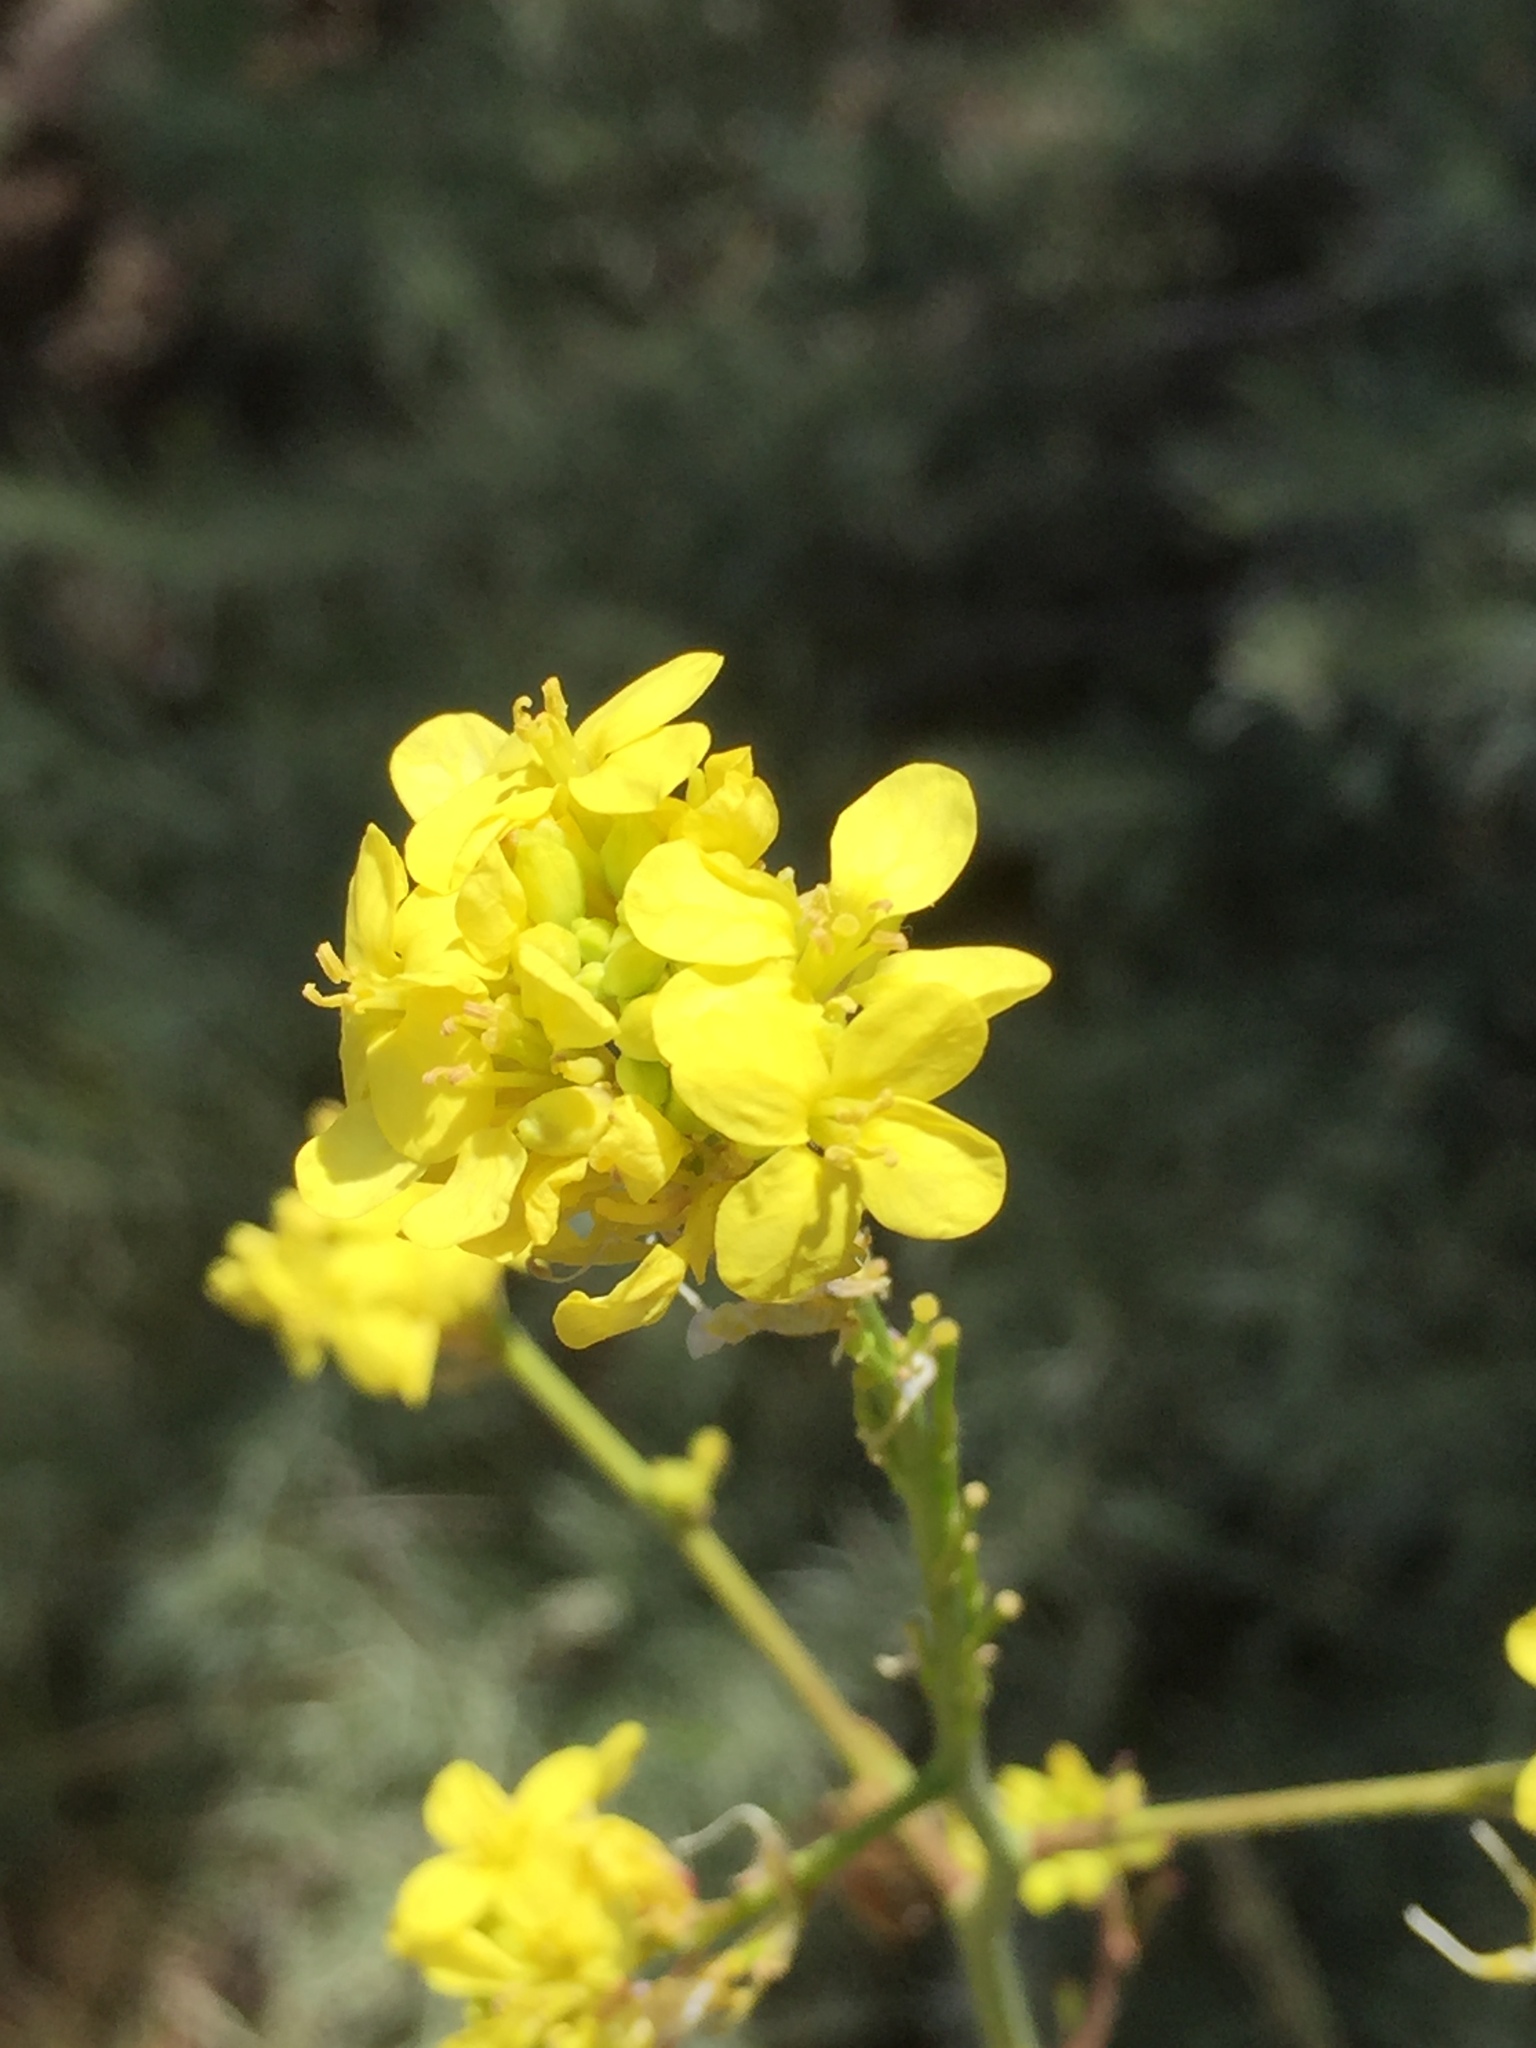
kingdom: Plantae
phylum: Tracheophyta
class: Magnoliopsida
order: Brassicales
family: Brassicaceae
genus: Sinapis
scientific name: Sinapis arvensis
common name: Charlock
